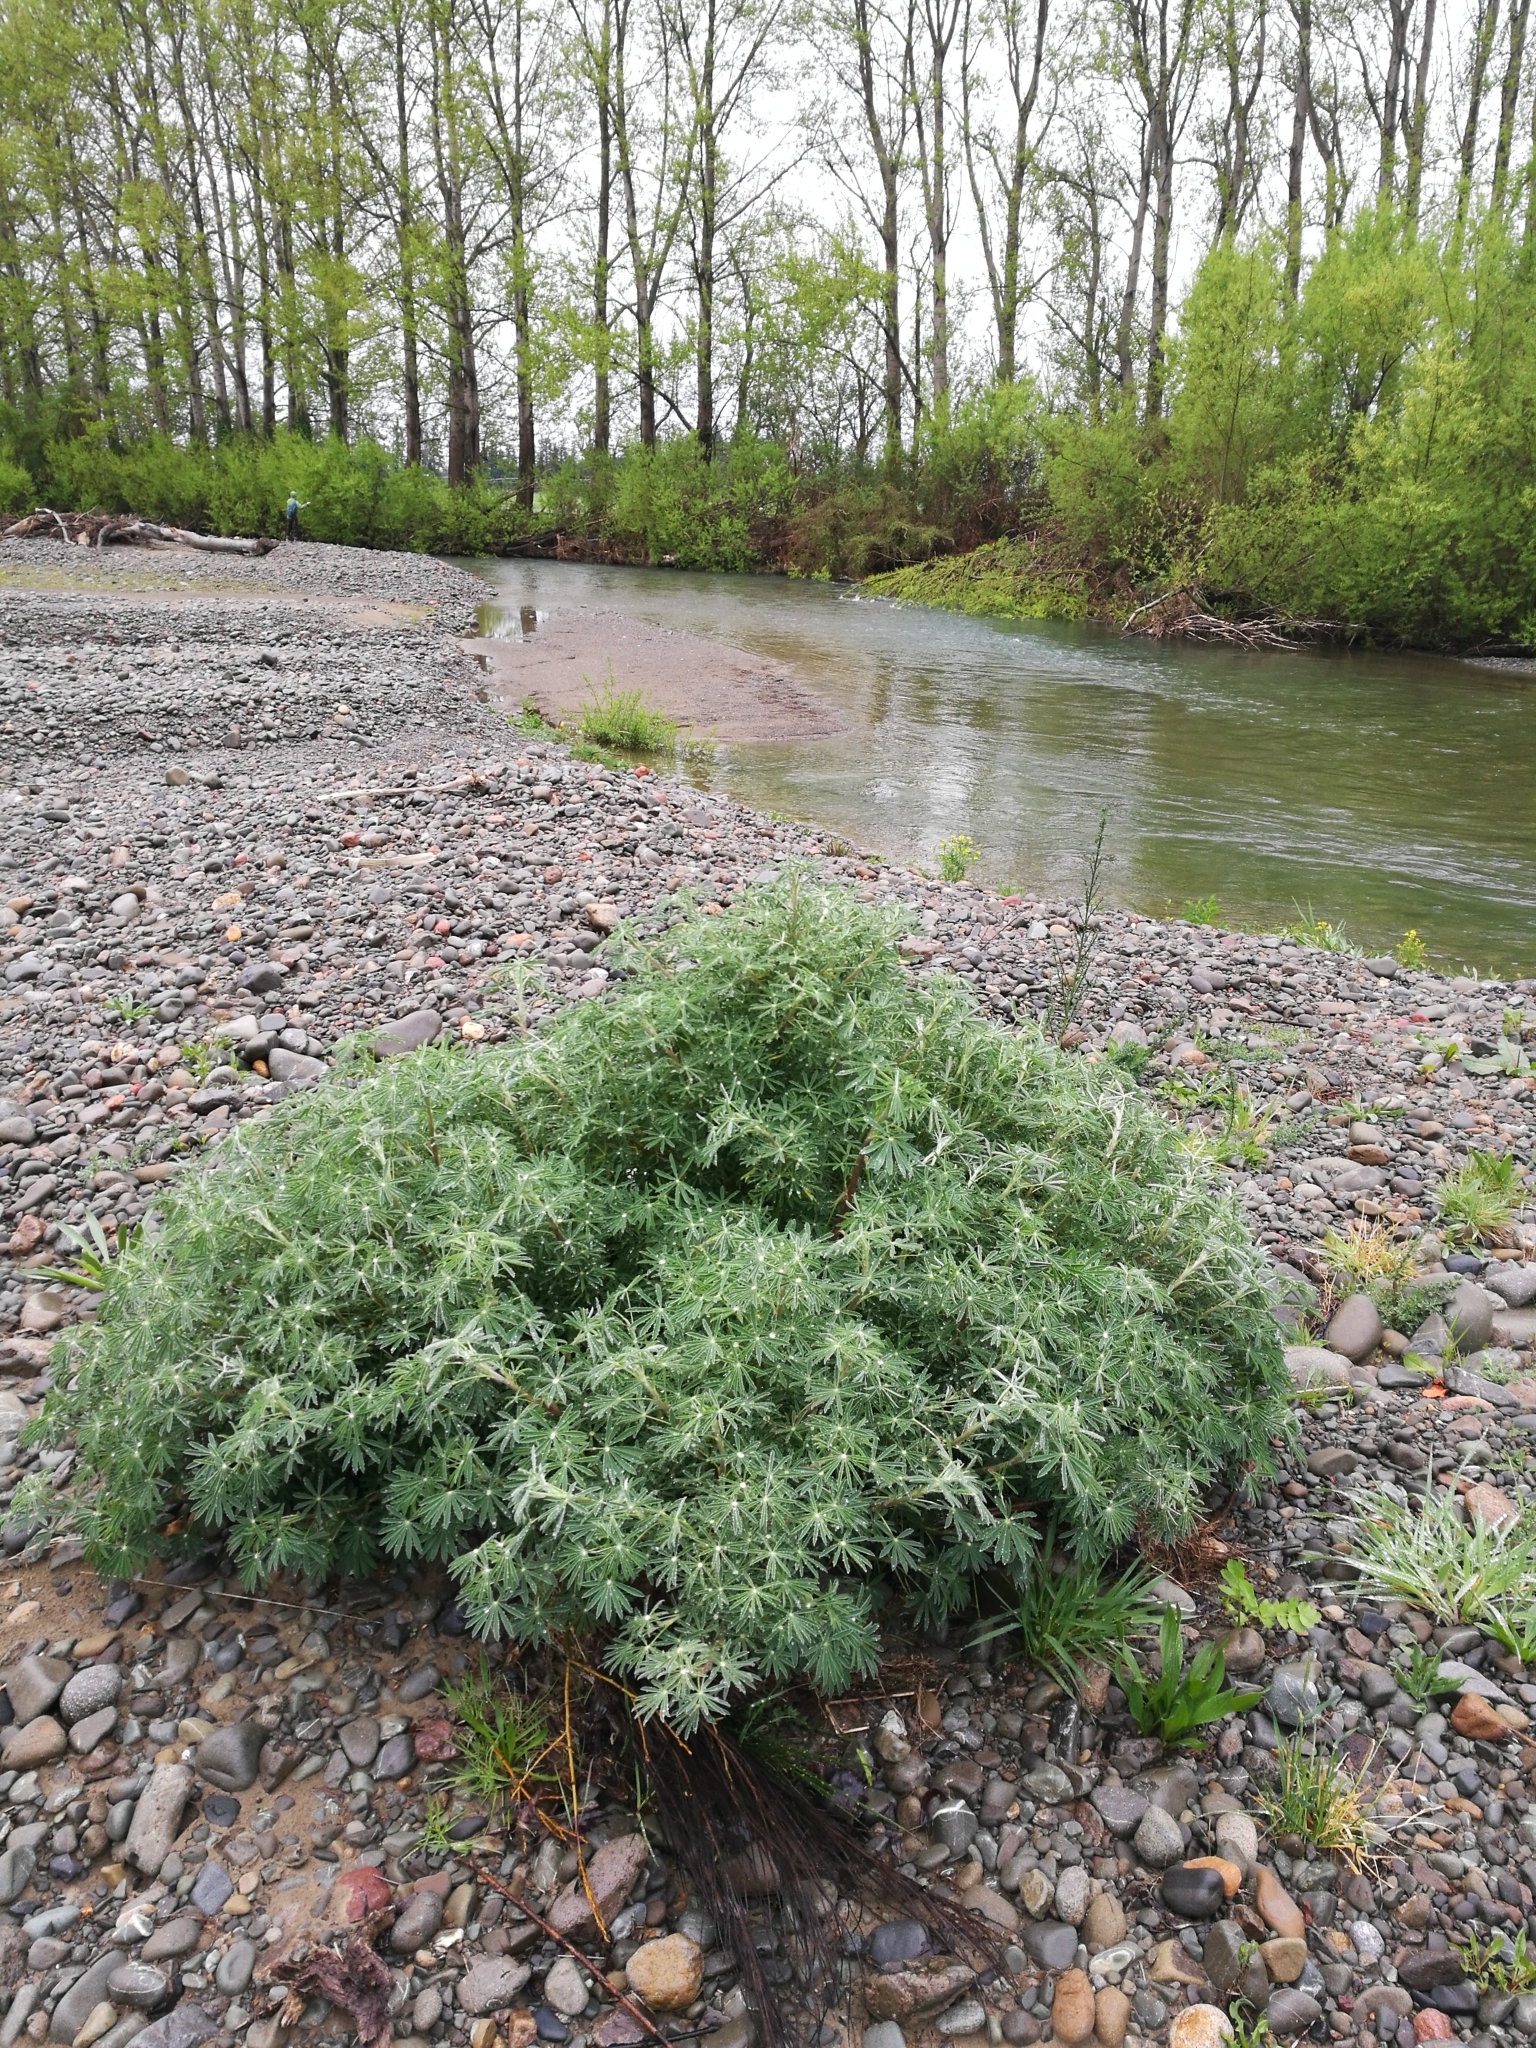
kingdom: Plantae
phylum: Tracheophyta
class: Magnoliopsida
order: Fabales
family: Fabaceae
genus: Lupinus
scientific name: Lupinus arboreus
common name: Yellow bush lupine
